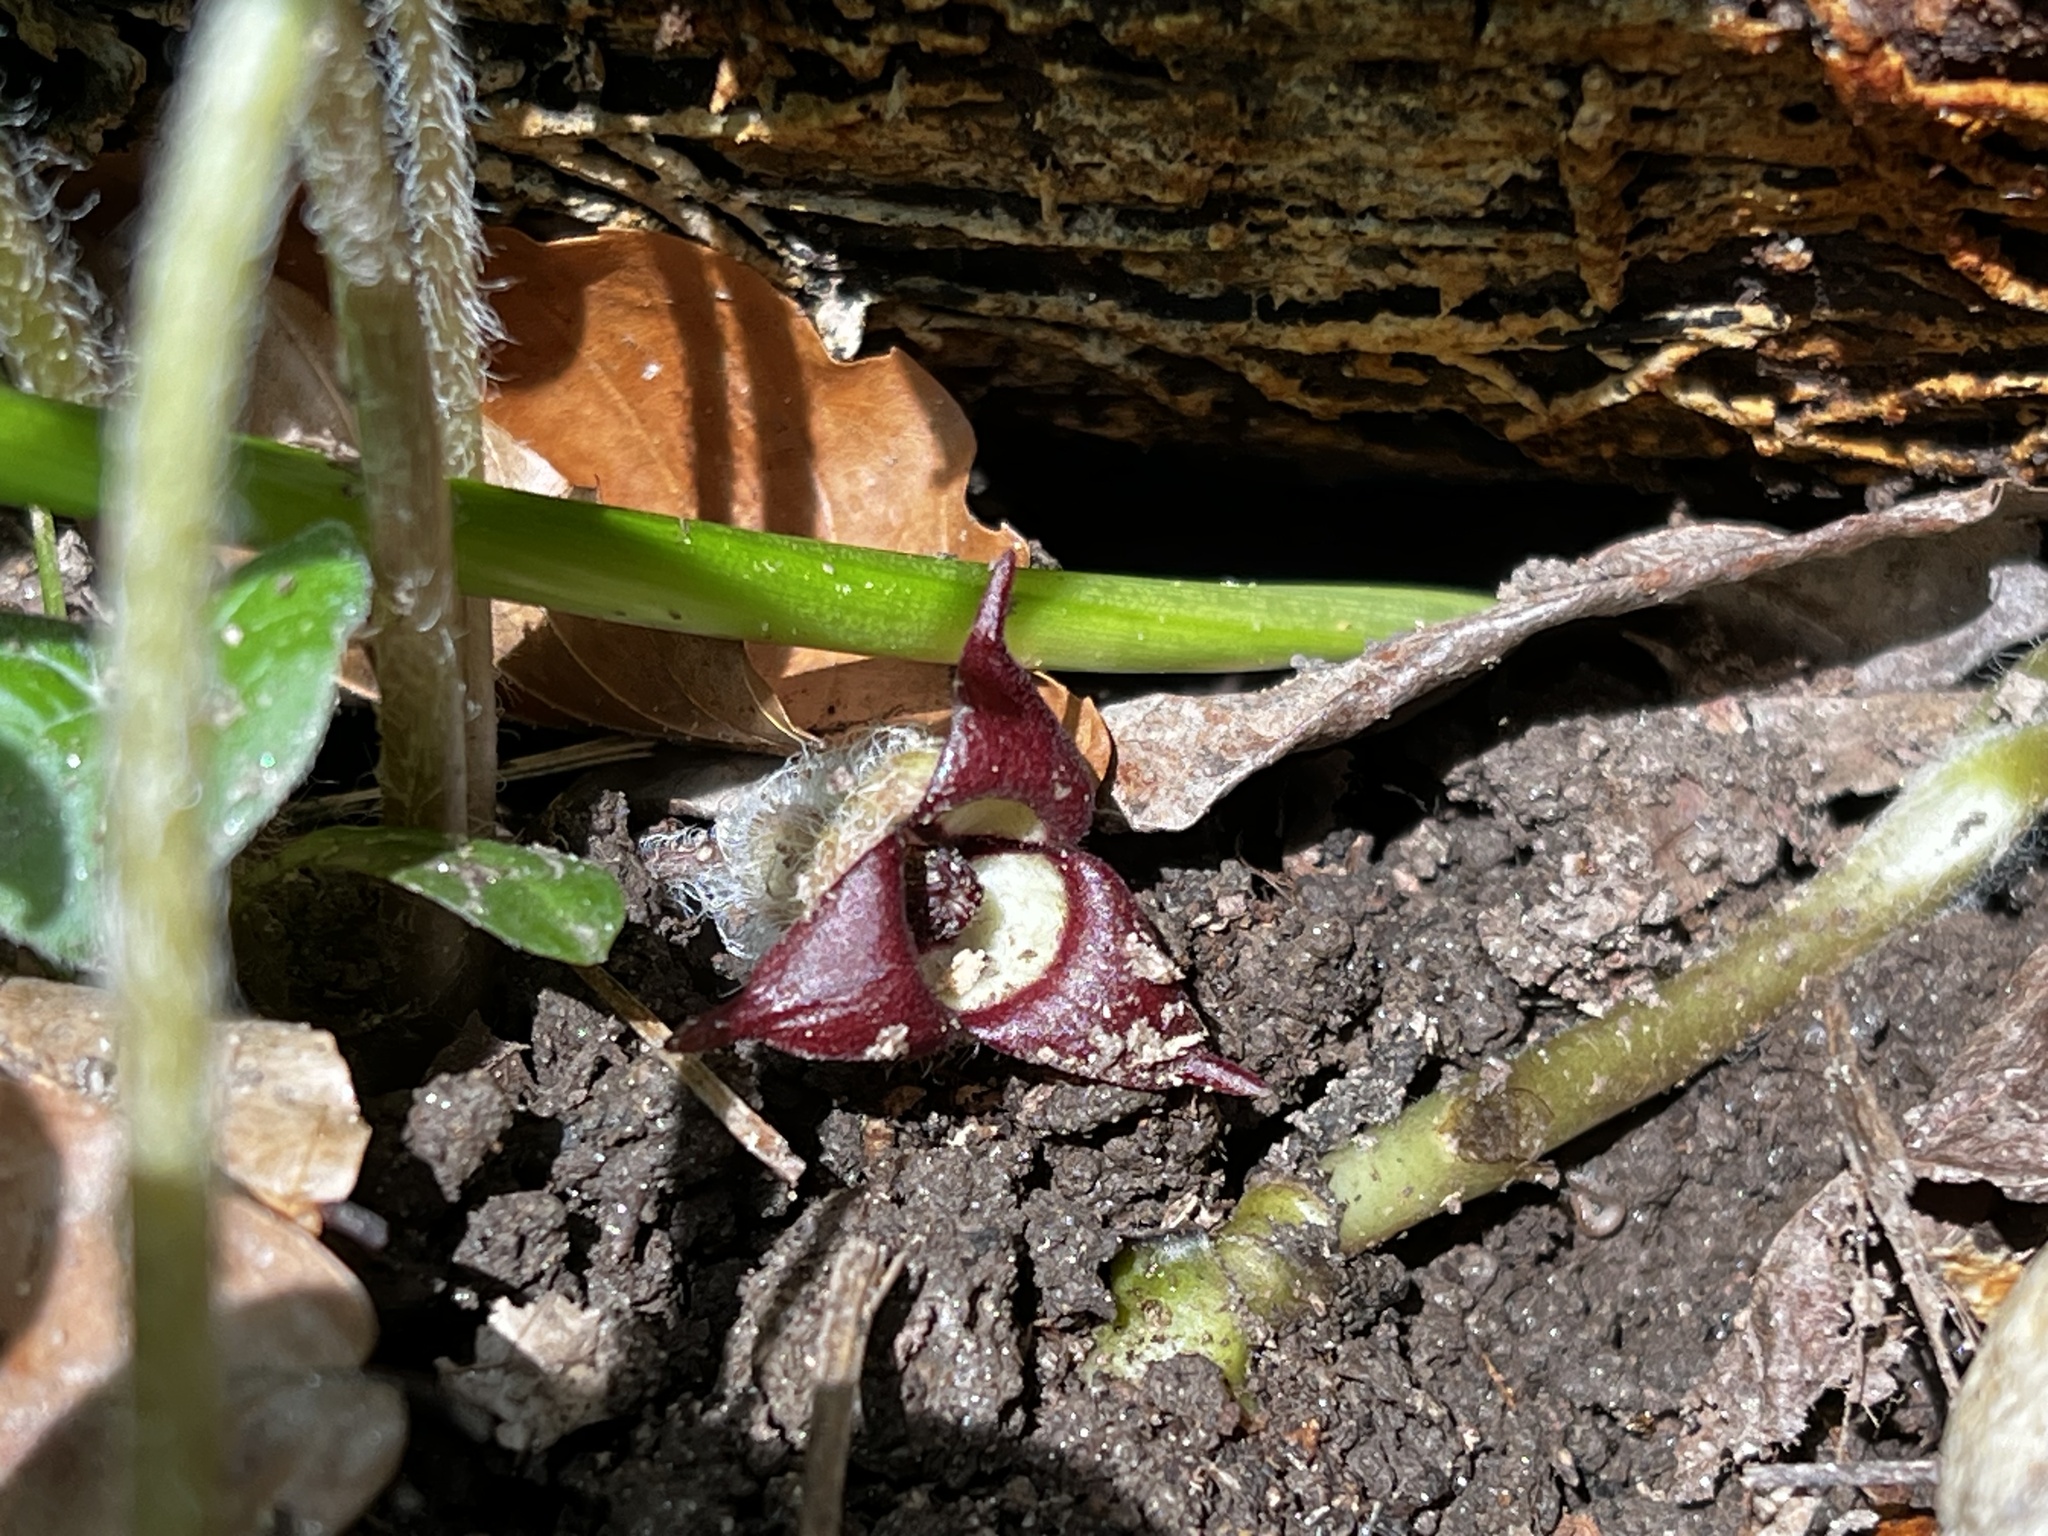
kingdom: Plantae
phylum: Tracheophyta
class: Magnoliopsida
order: Piperales
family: Aristolochiaceae
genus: Asarum
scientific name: Asarum canadense
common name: Wild ginger
